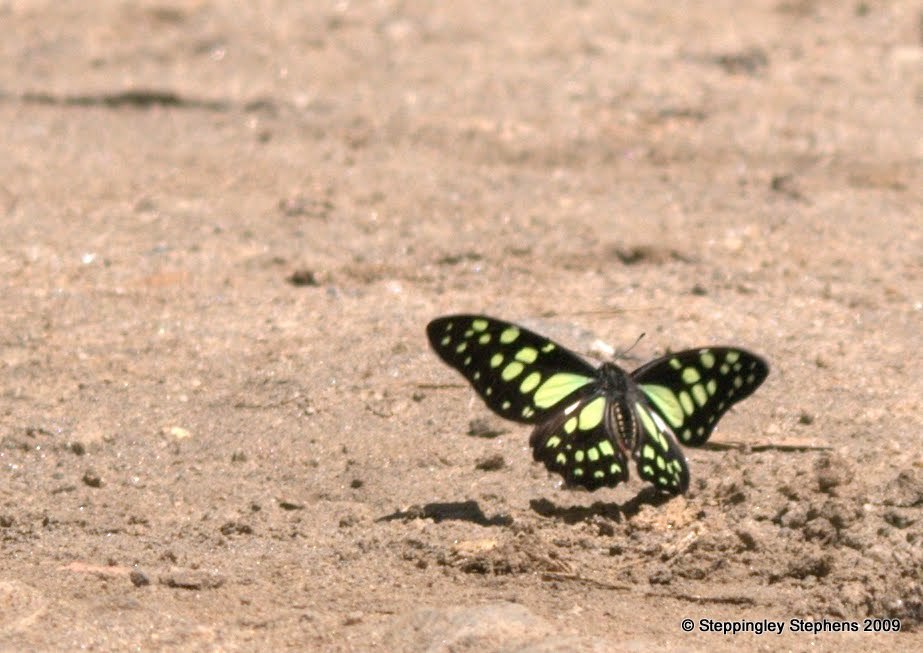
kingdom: Animalia
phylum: Arthropoda
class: Insecta
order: Lepidoptera
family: Papilionidae
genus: Graphium
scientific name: Graphium cyrnus
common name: Madagascan graphium
